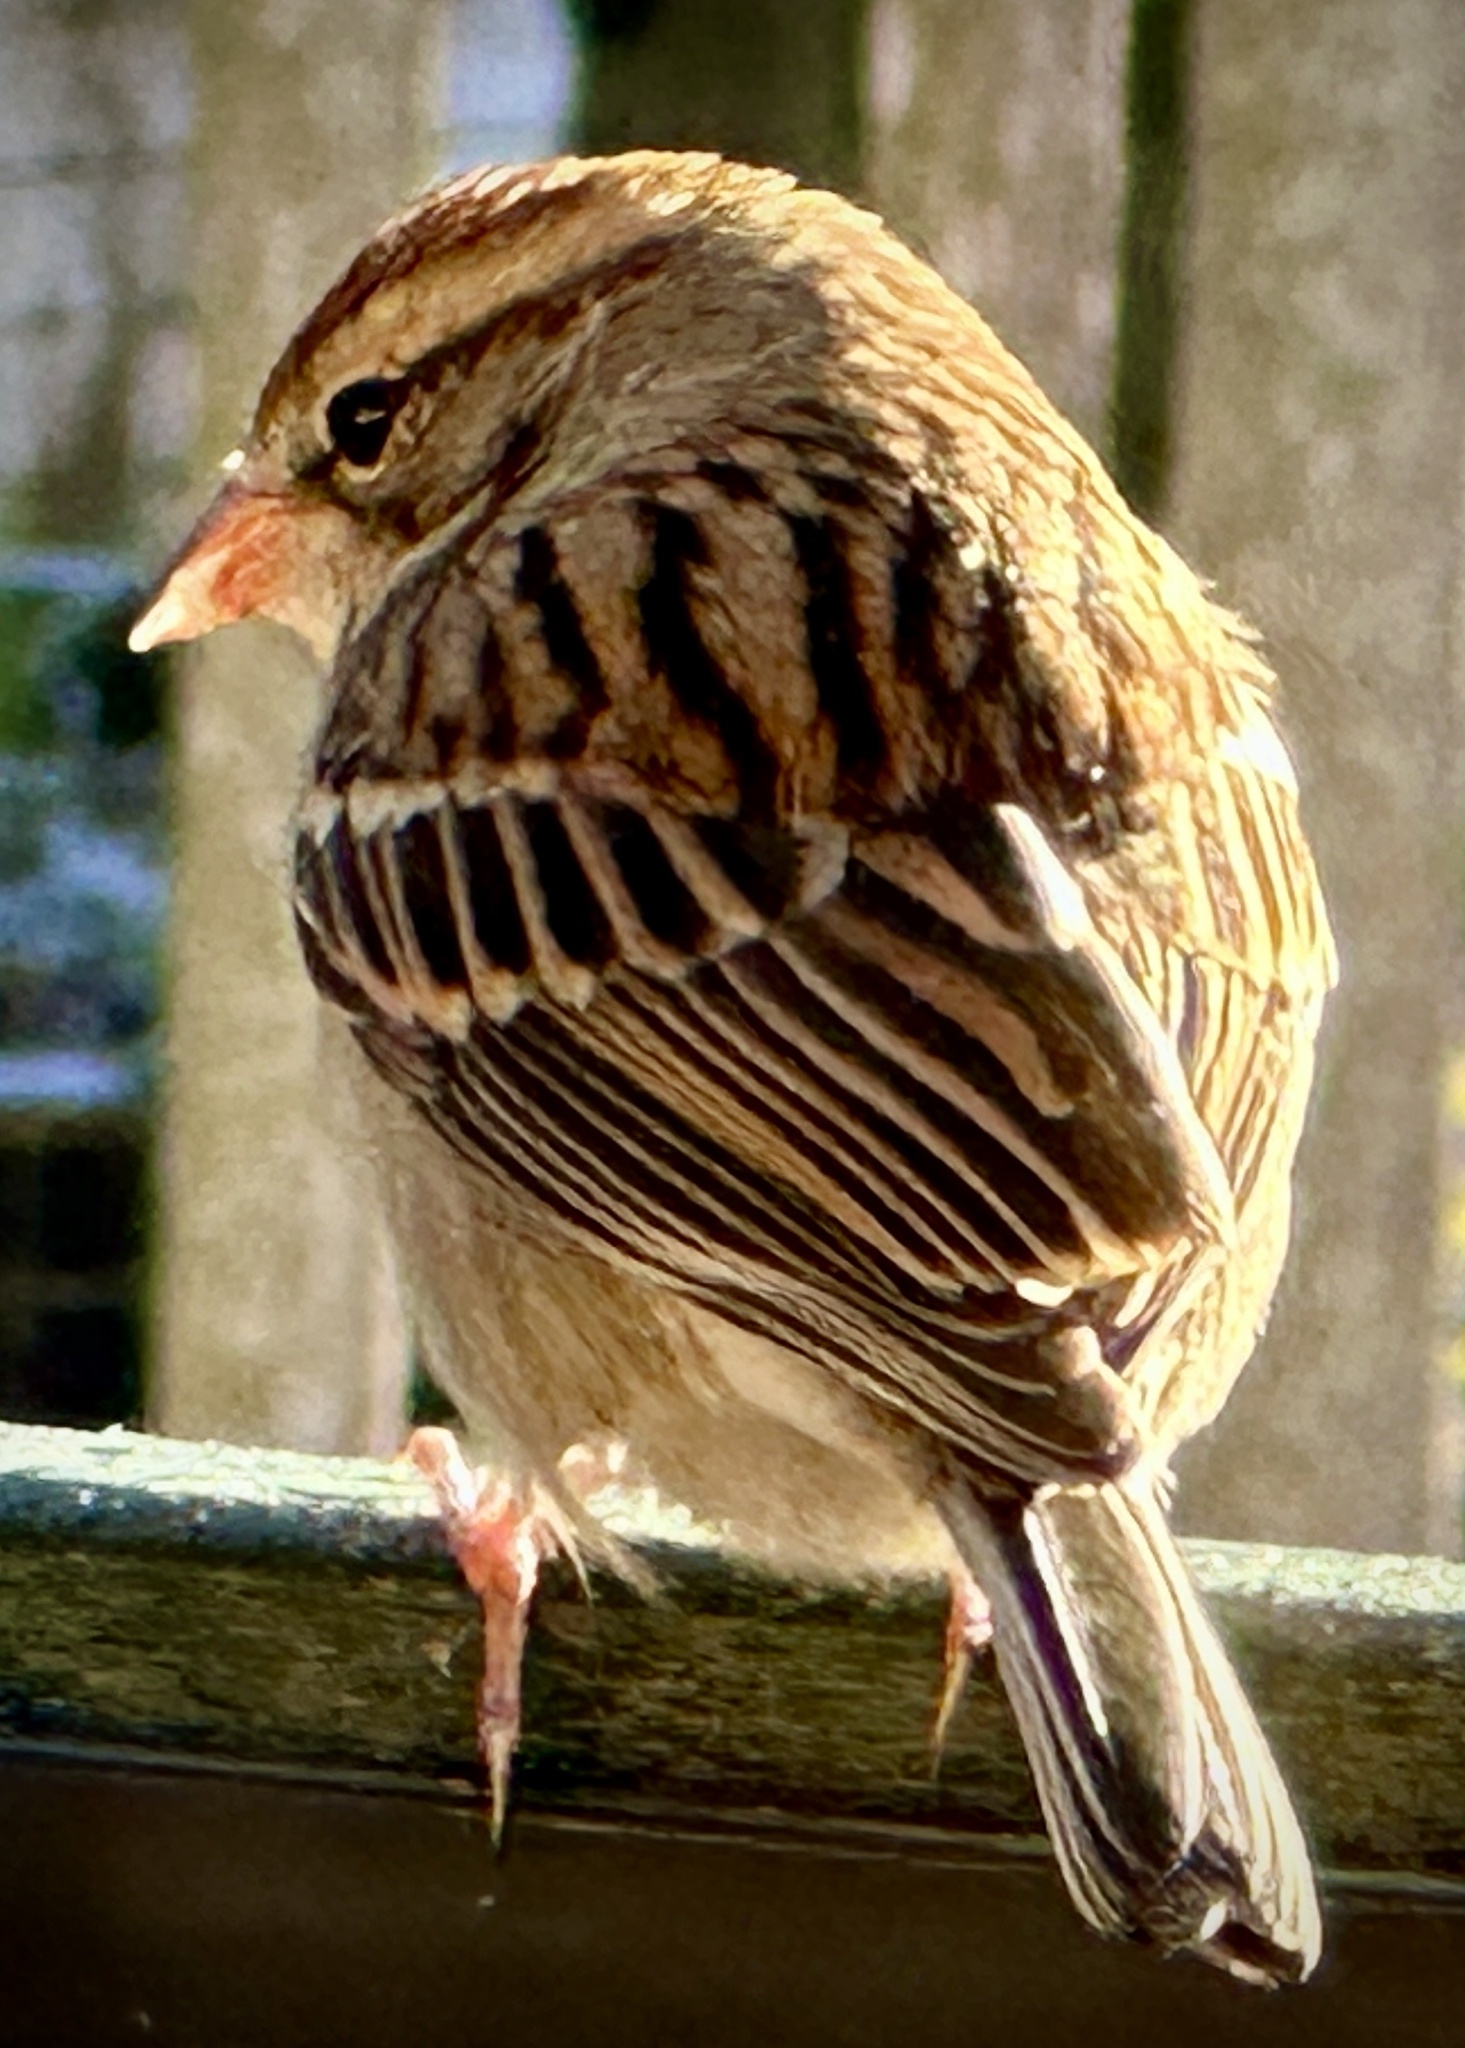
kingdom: Animalia
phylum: Chordata
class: Aves
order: Passeriformes
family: Passerellidae
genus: Spizella
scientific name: Spizella passerina
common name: Chipping sparrow
